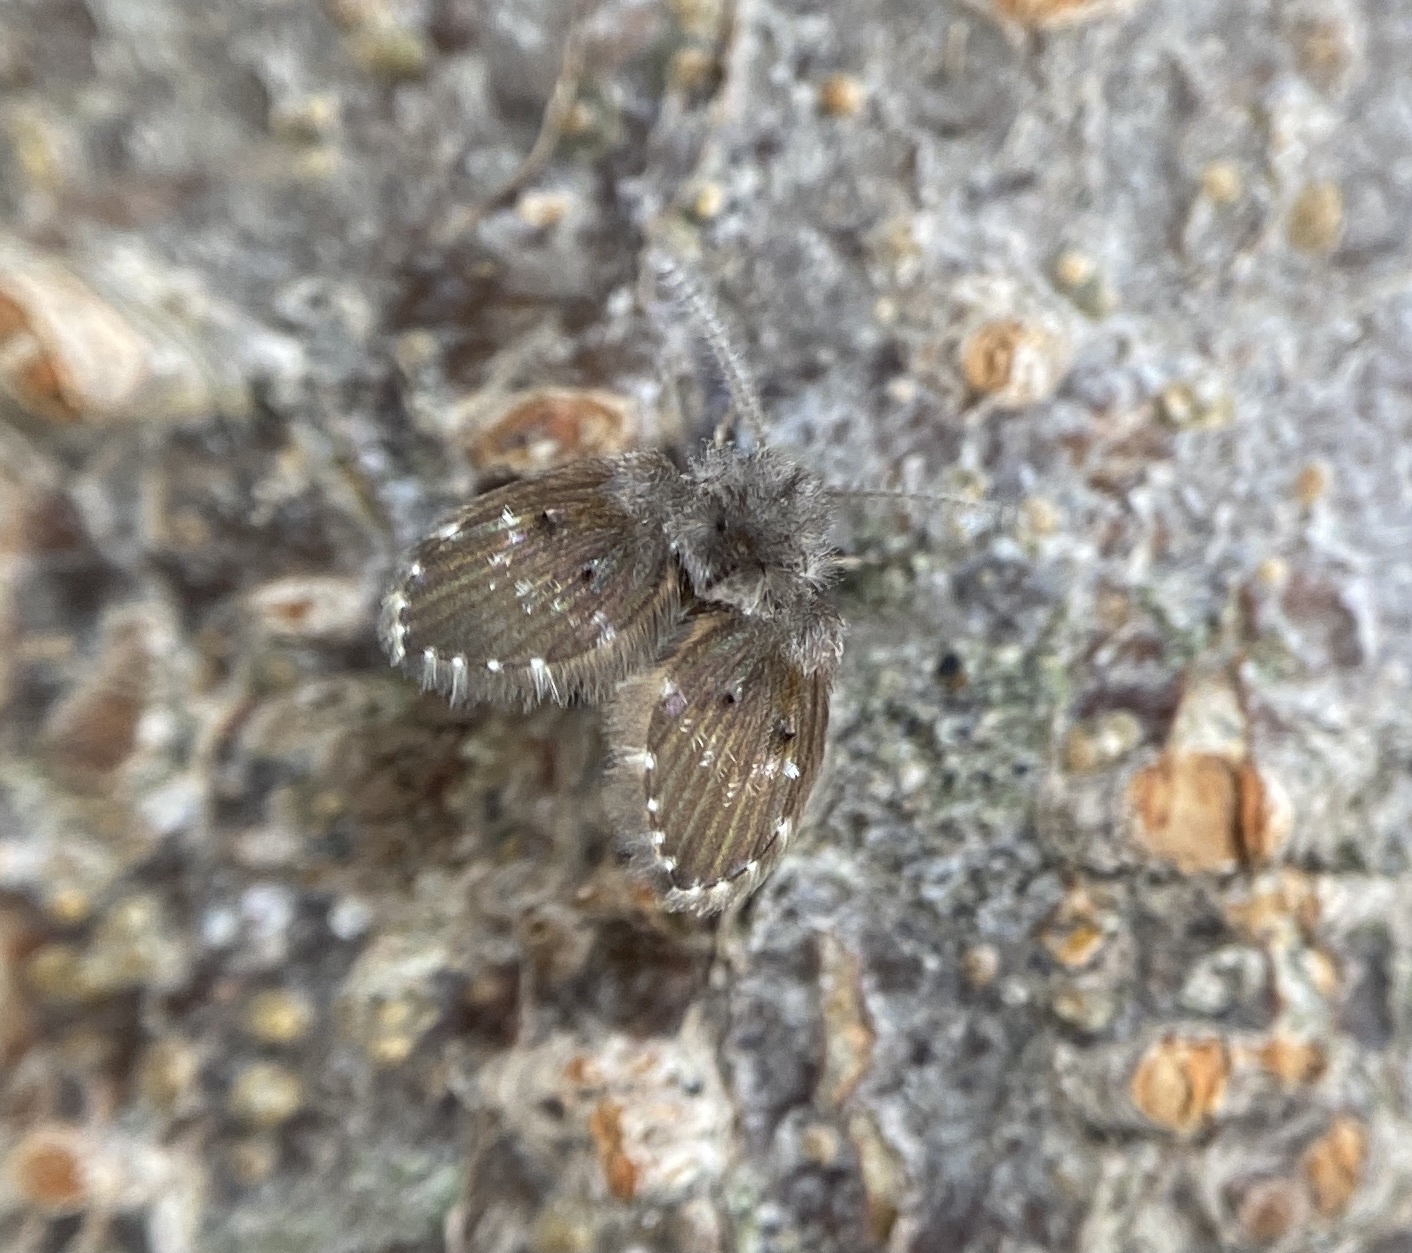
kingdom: Animalia
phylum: Arthropoda
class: Insecta
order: Diptera
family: Psychodidae
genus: Clogmia
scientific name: Clogmia albipunctatus
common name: White-spotted moth fly
